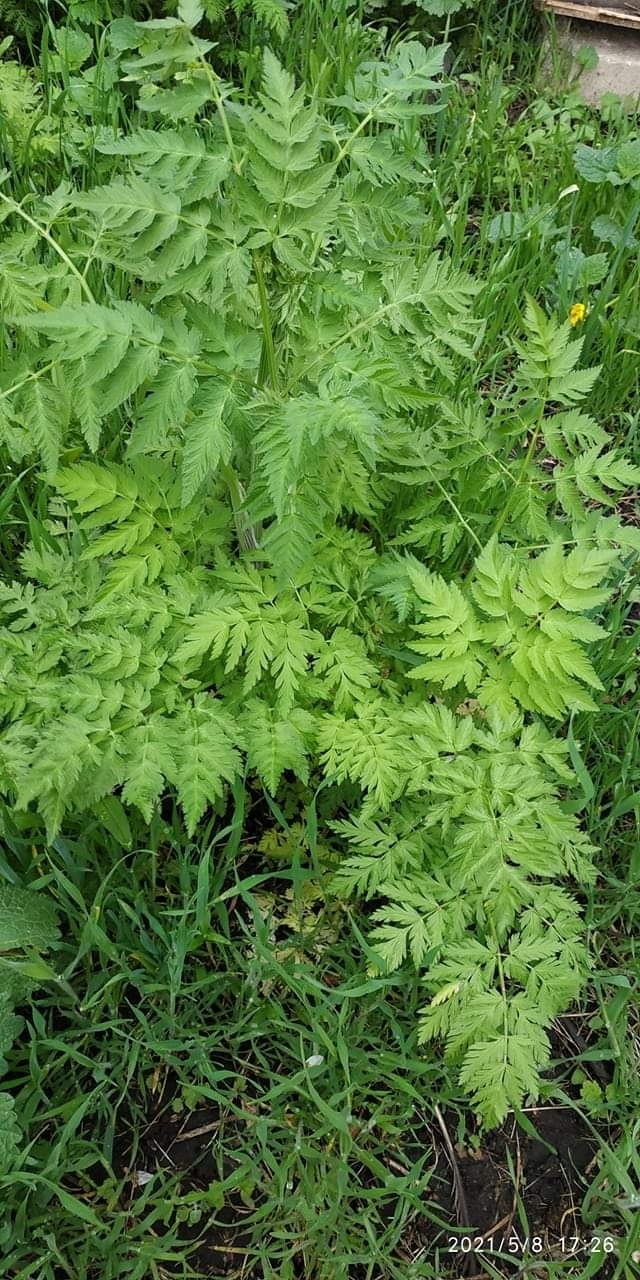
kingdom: Plantae
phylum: Tracheophyta
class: Magnoliopsida
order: Apiales
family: Apiaceae
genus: Anthriscus
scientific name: Anthriscus sylvestris
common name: Cow parsley
